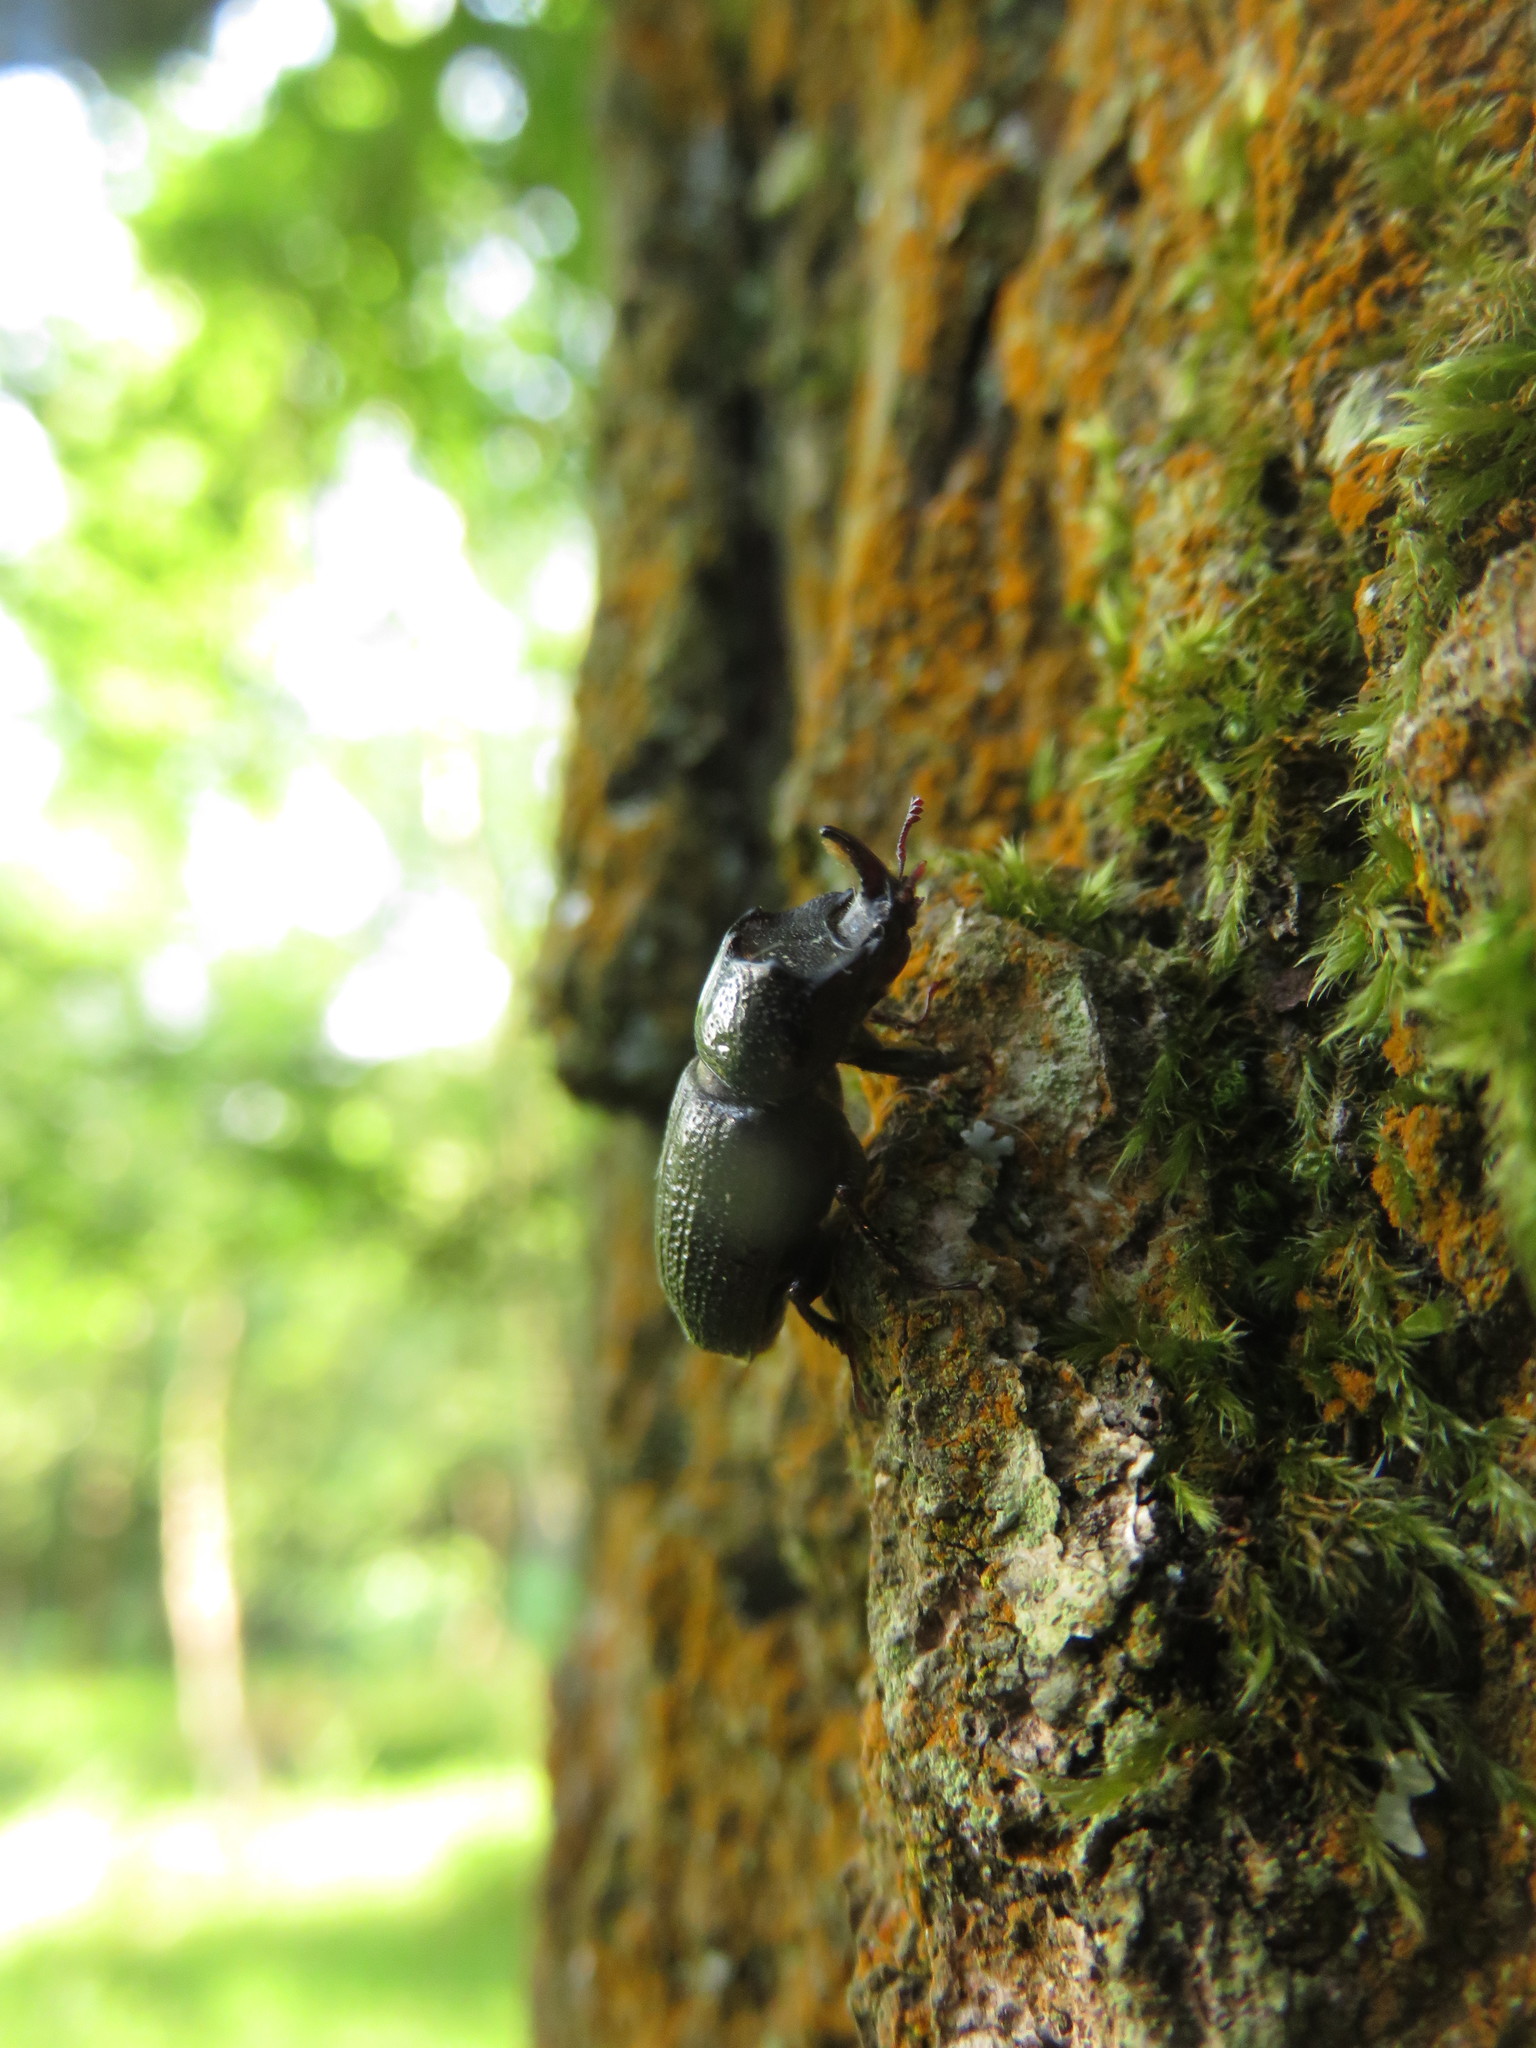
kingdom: Animalia
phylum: Arthropoda
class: Insecta
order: Coleoptera
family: Lucanidae
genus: Sinodendron
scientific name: Sinodendron cylindricum
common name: Rhinoceros beetle
